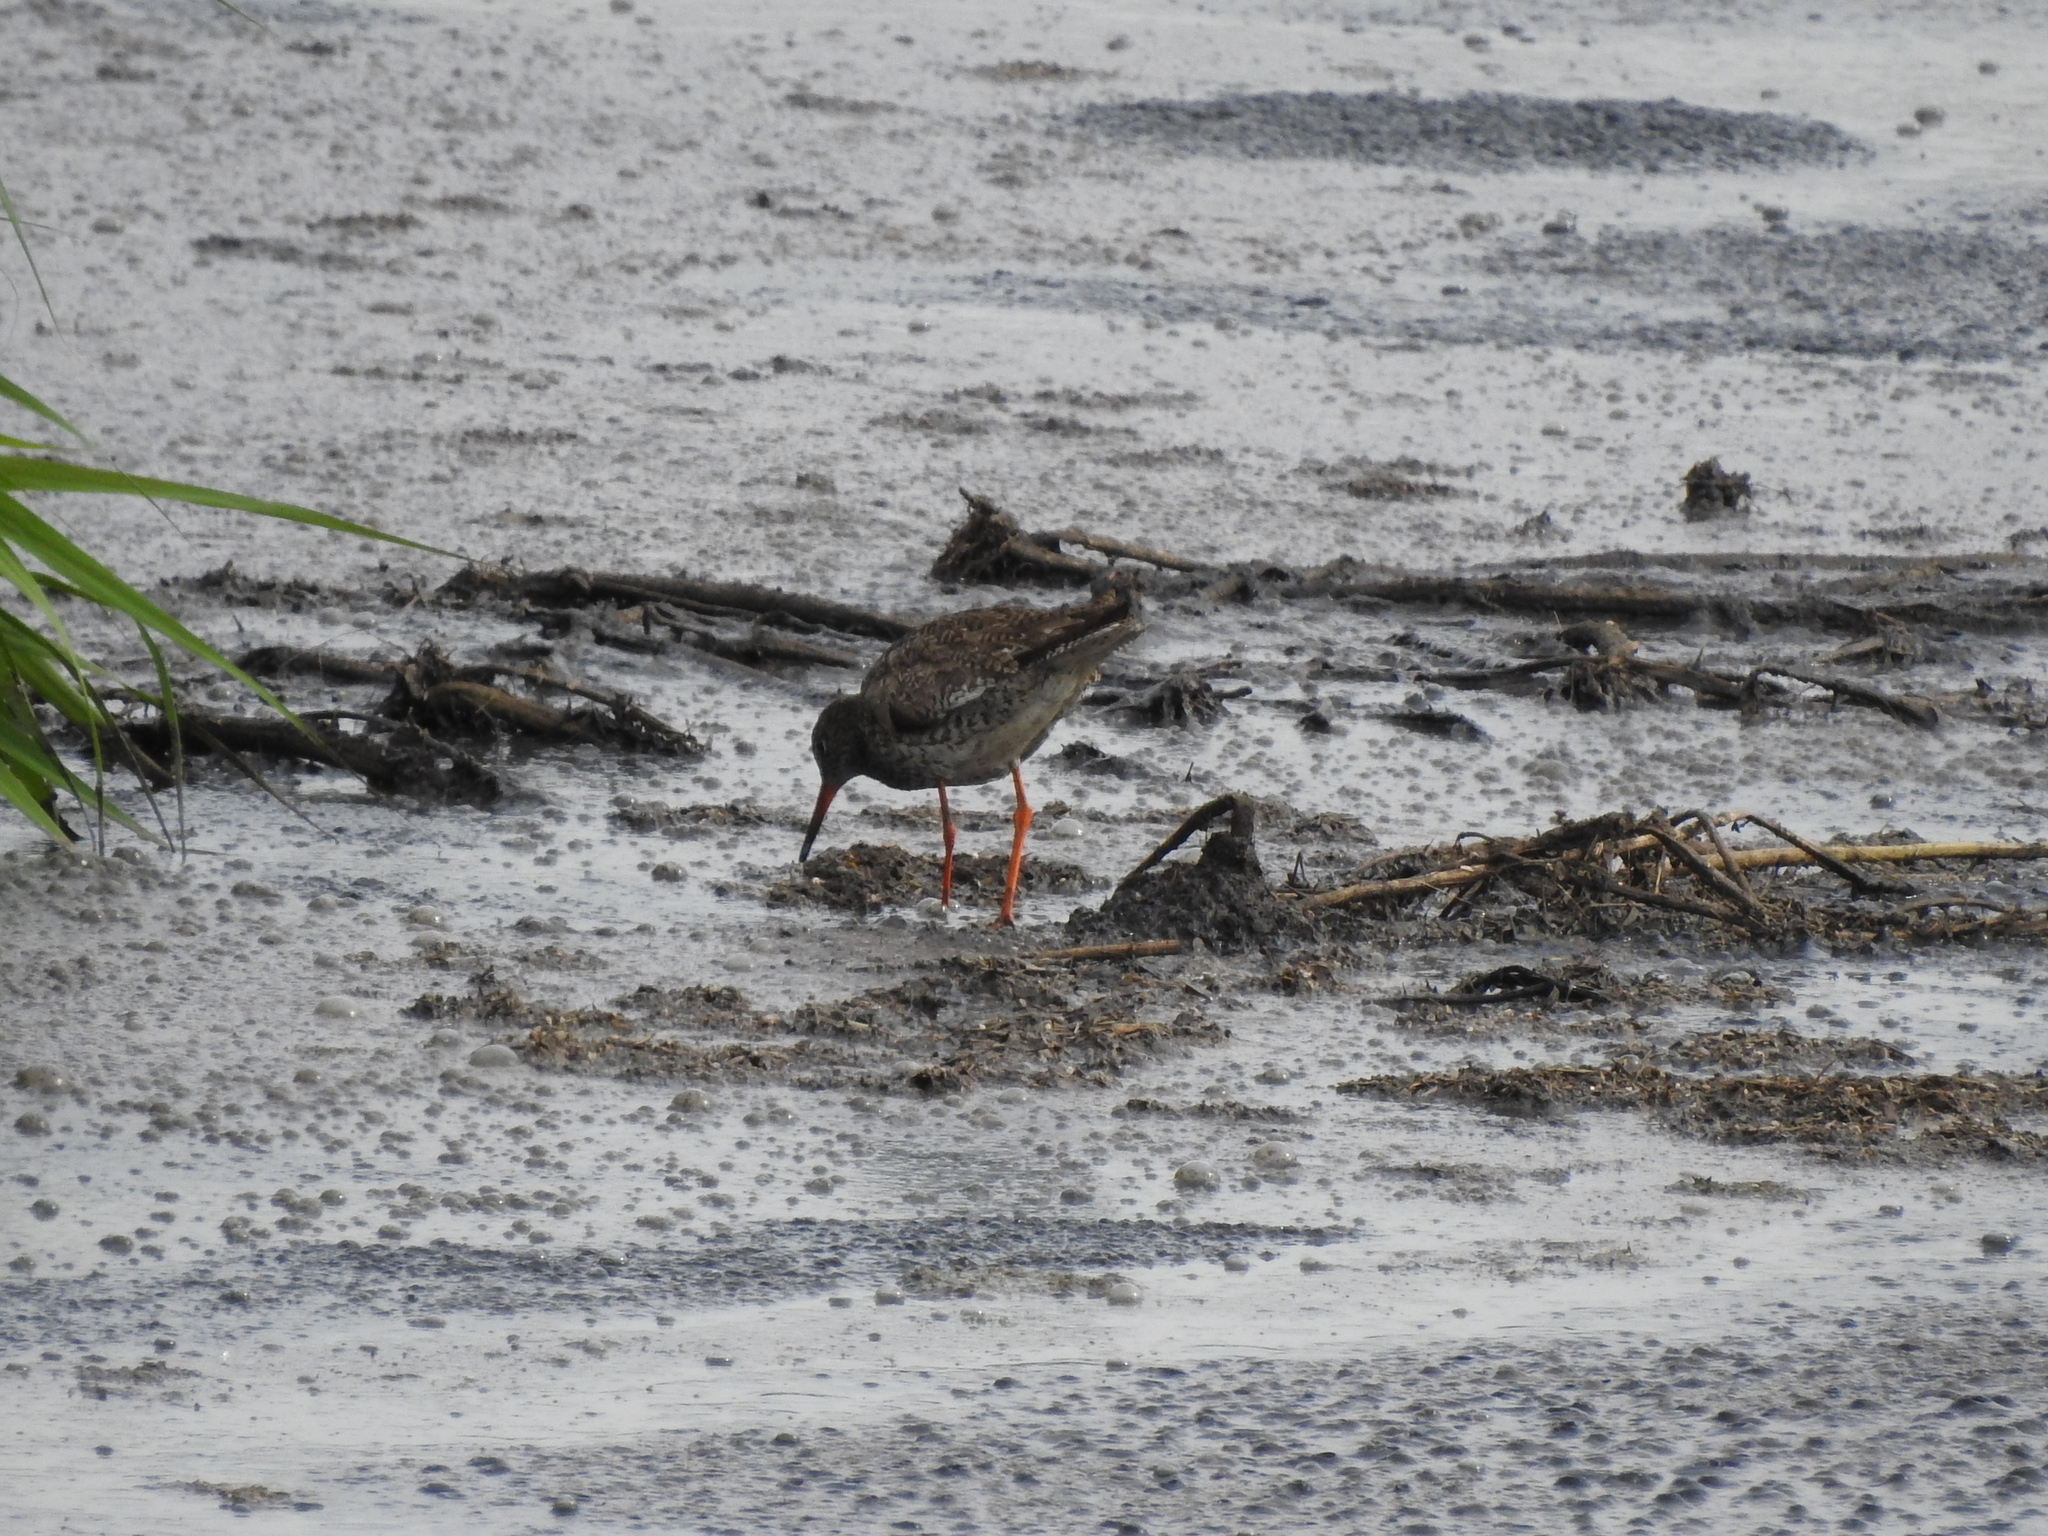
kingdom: Animalia
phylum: Chordata
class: Aves
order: Charadriiformes
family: Scolopacidae
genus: Tringa
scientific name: Tringa totanus
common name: Common redshank
